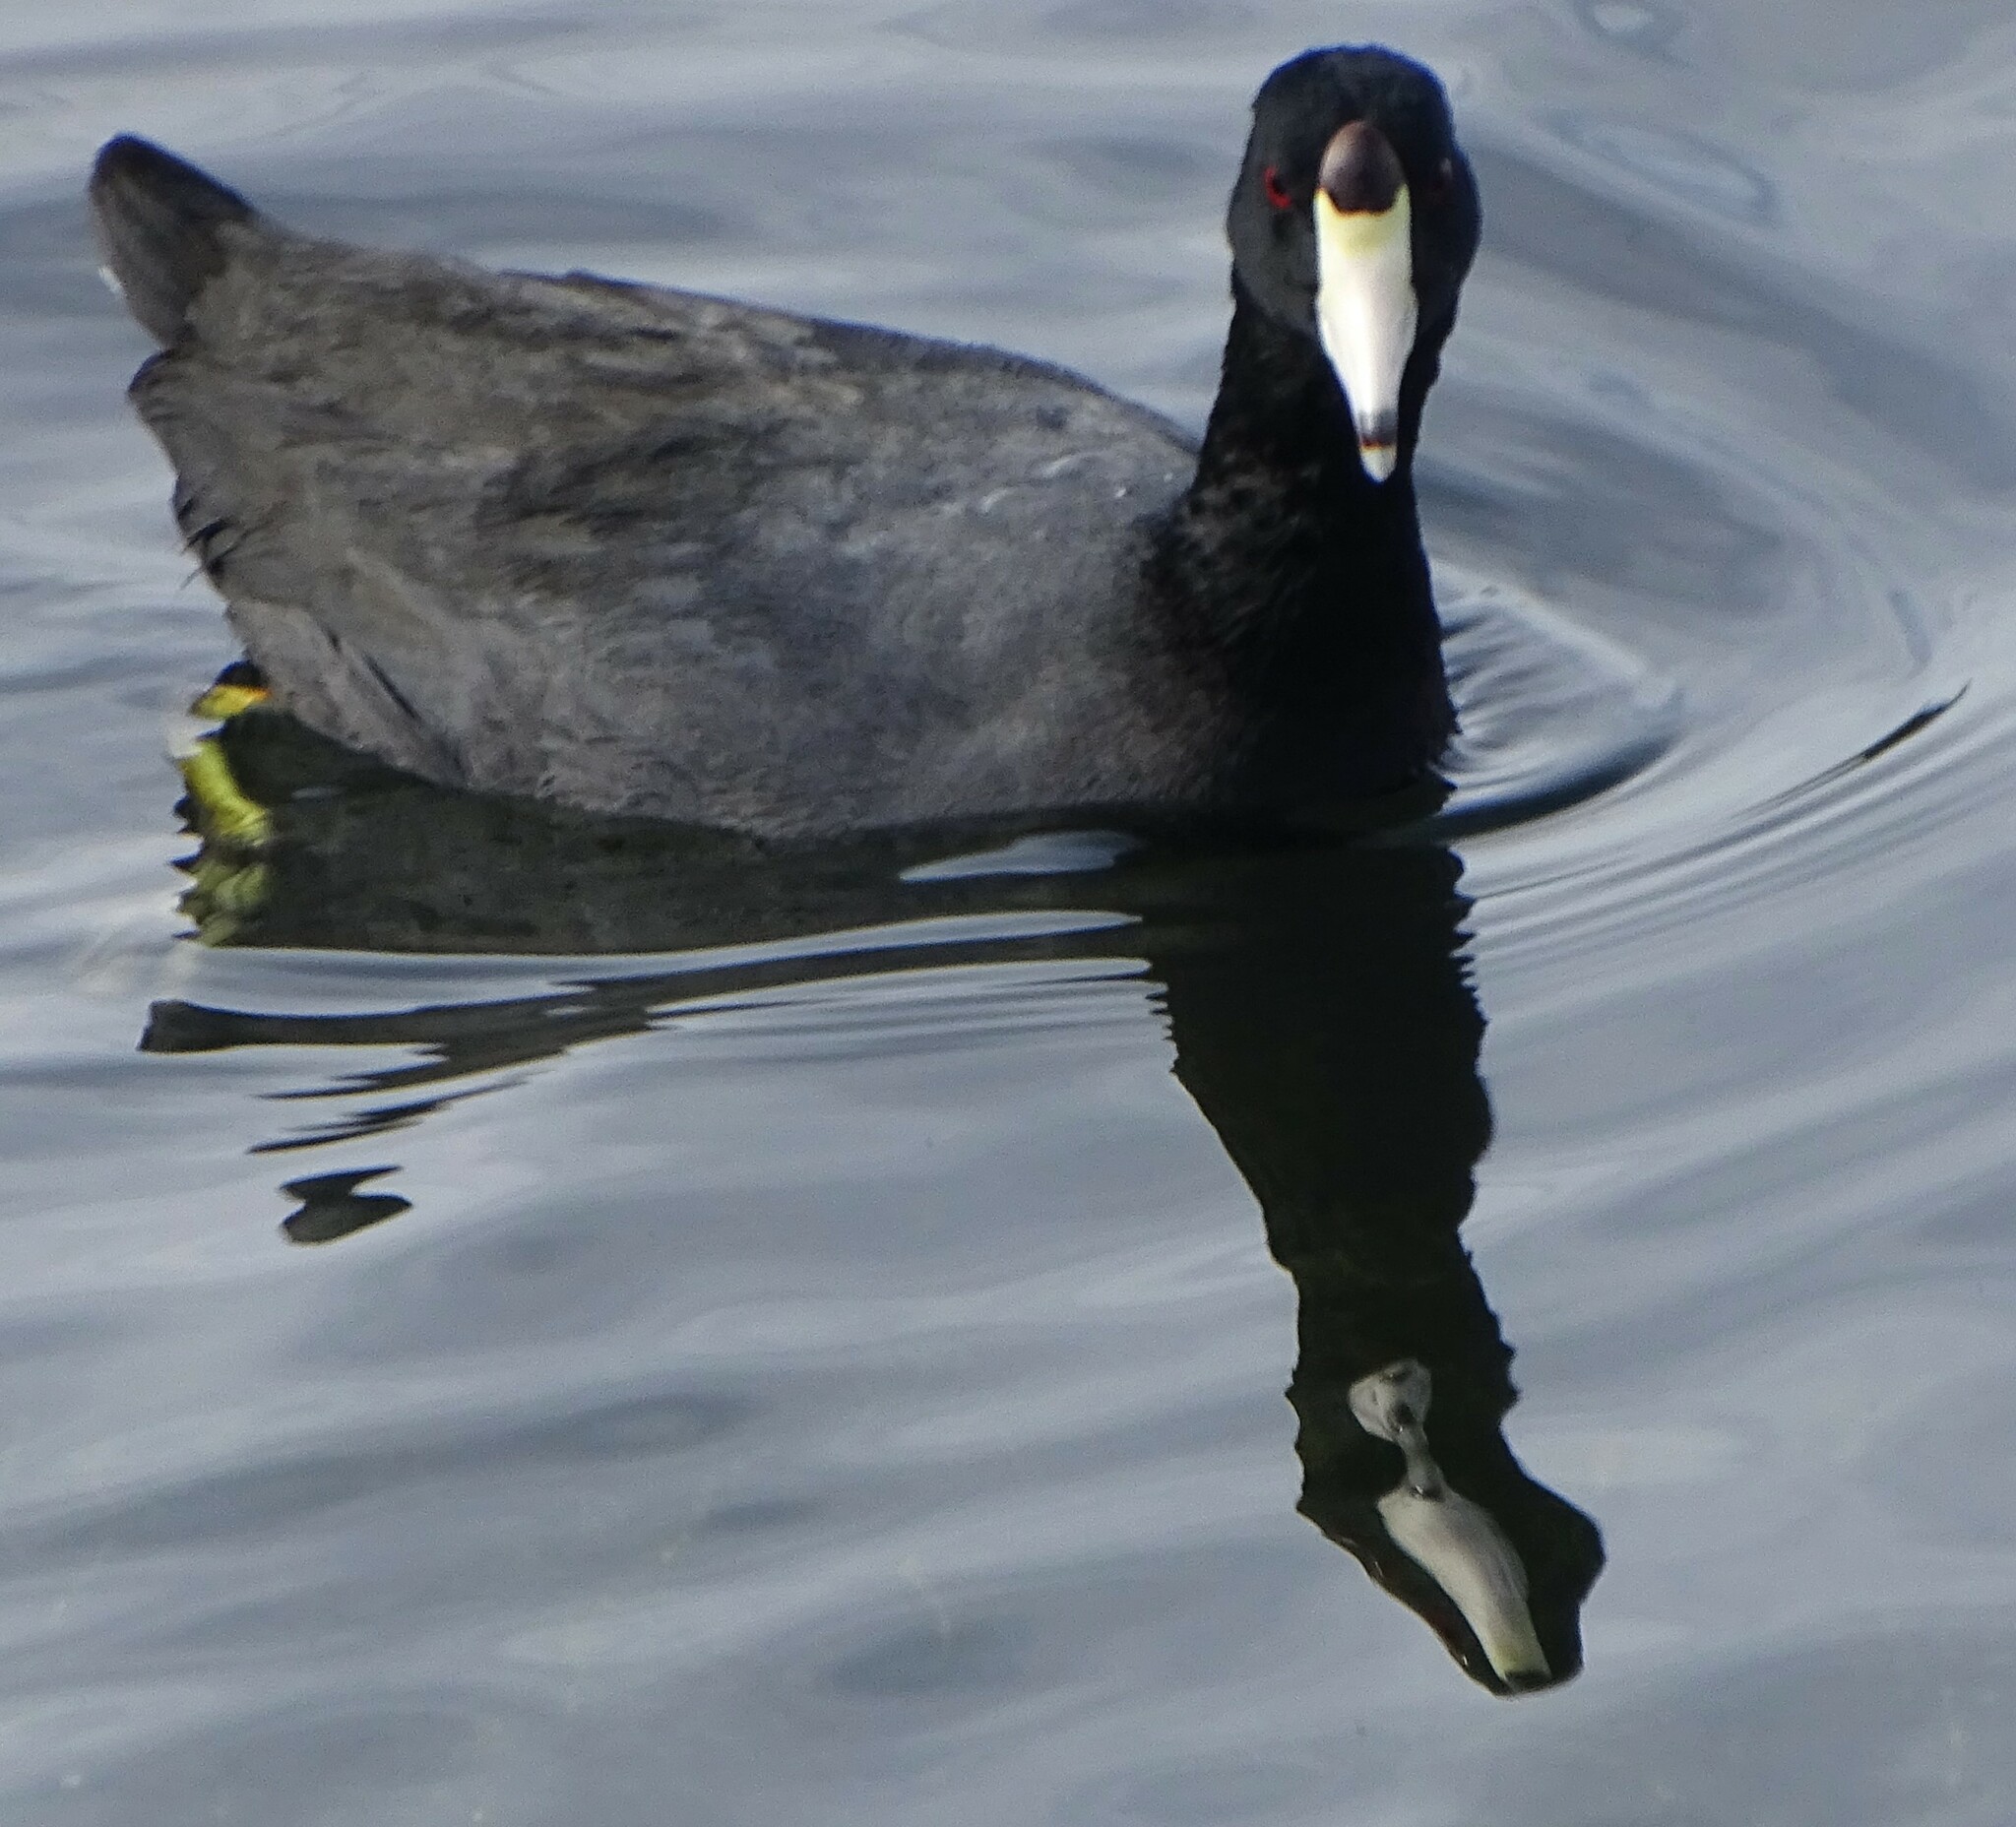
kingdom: Animalia
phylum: Chordata
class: Aves
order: Gruiformes
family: Rallidae
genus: Fulica
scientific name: Fulica americana
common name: American coot
